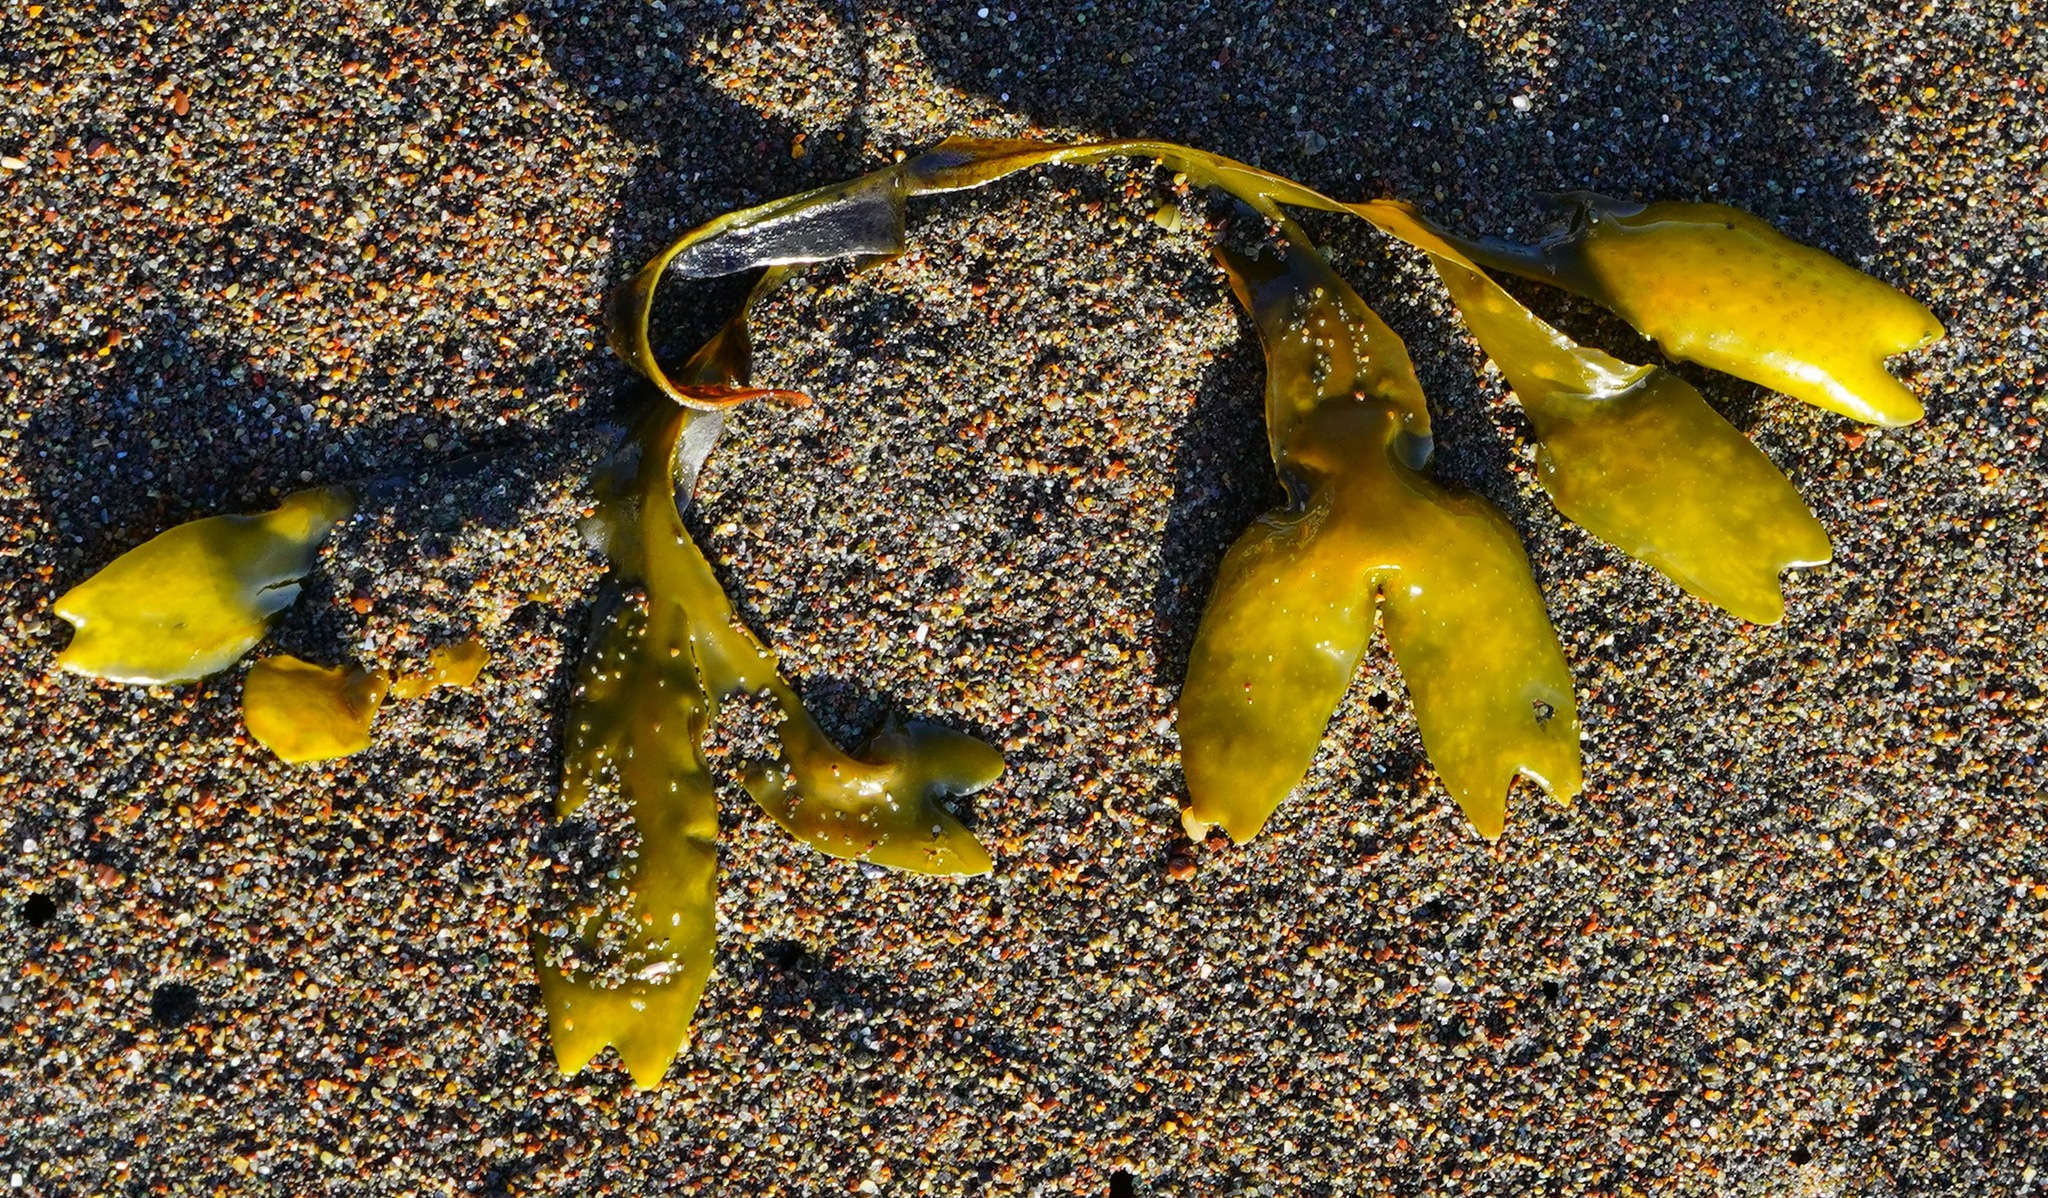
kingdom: Chromista
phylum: Ochrophyta
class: Phaeophyceae
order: Fucales
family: Fucaceae
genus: Fucus
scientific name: Fucus distichus
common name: Rockweed
